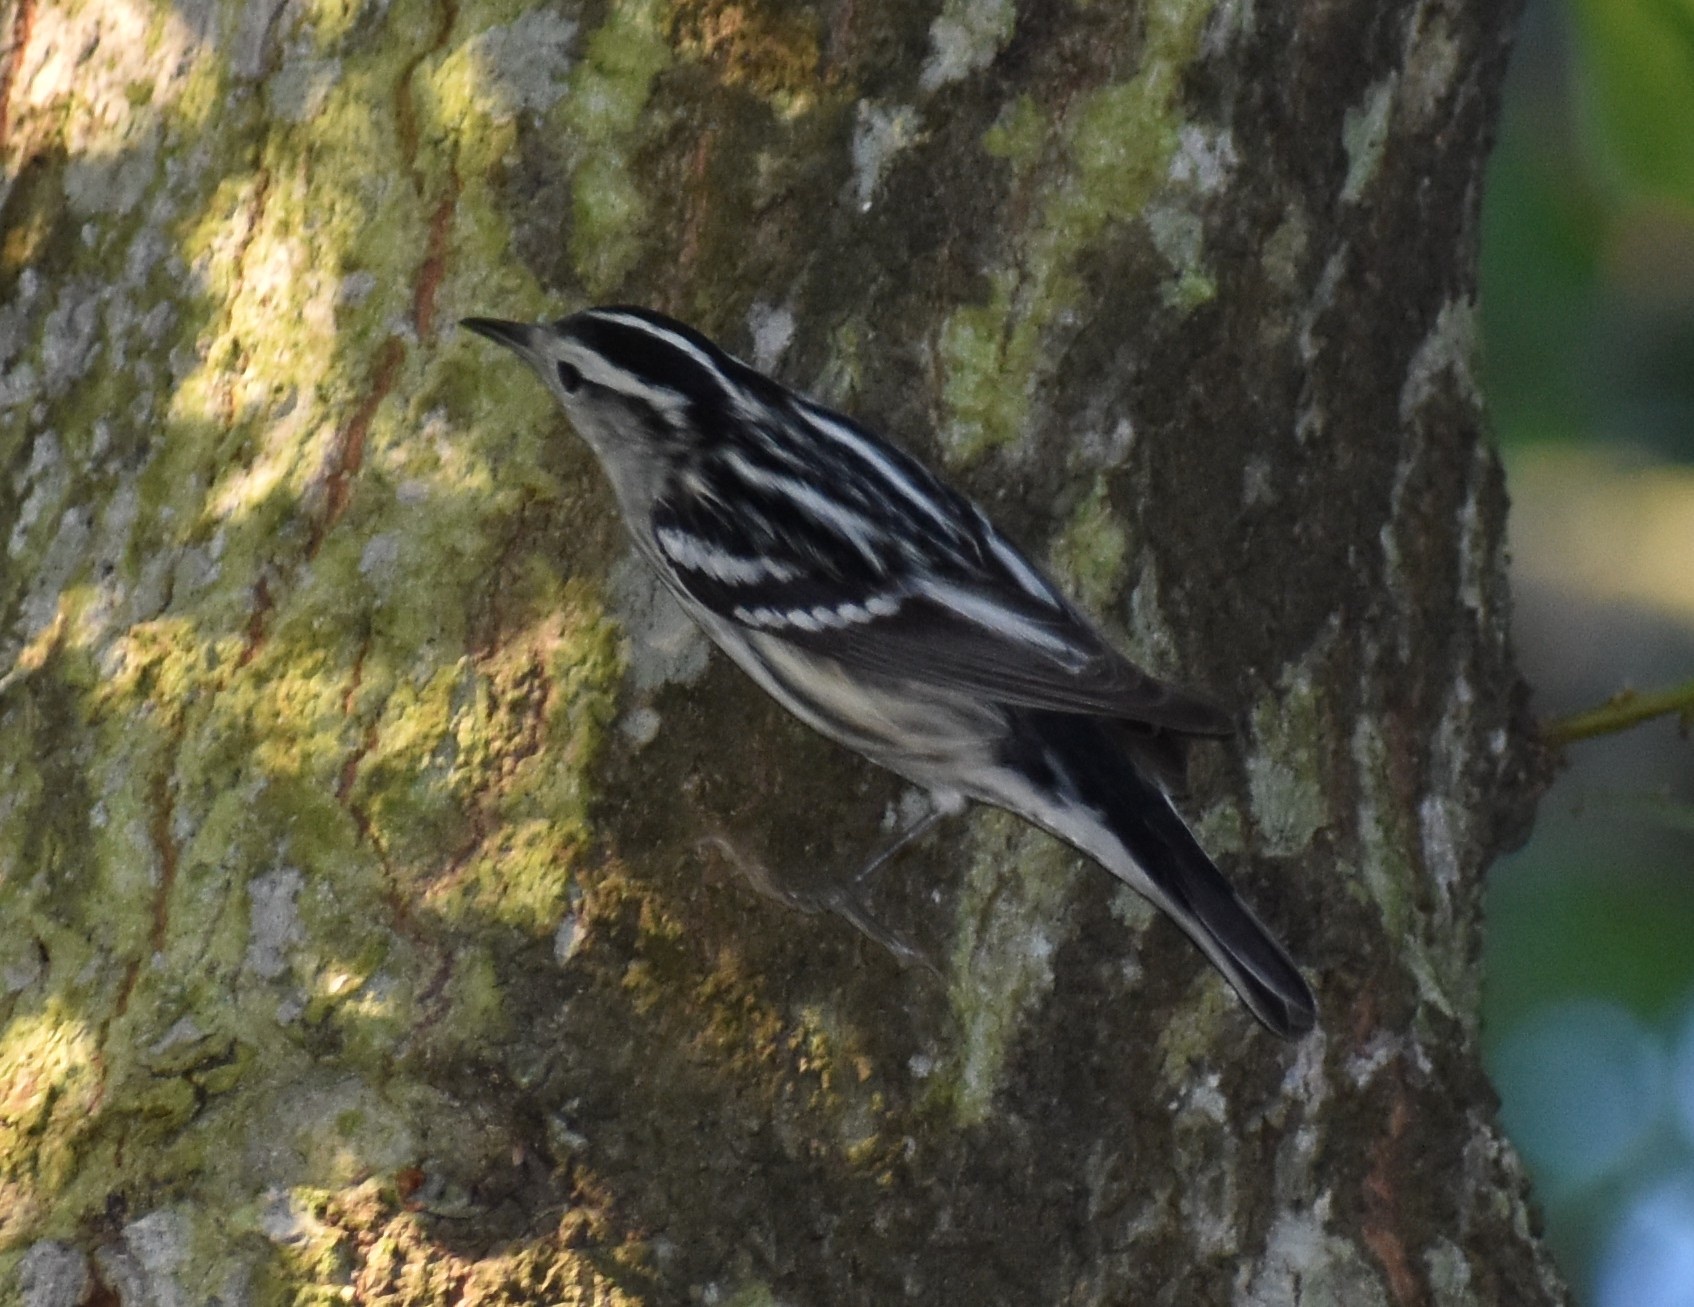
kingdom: Animalia
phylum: Chordata
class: Aves
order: Passeriformes
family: Parulidae
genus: Mniotilta
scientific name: Mniotilta varia
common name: Black-and-white warbler
